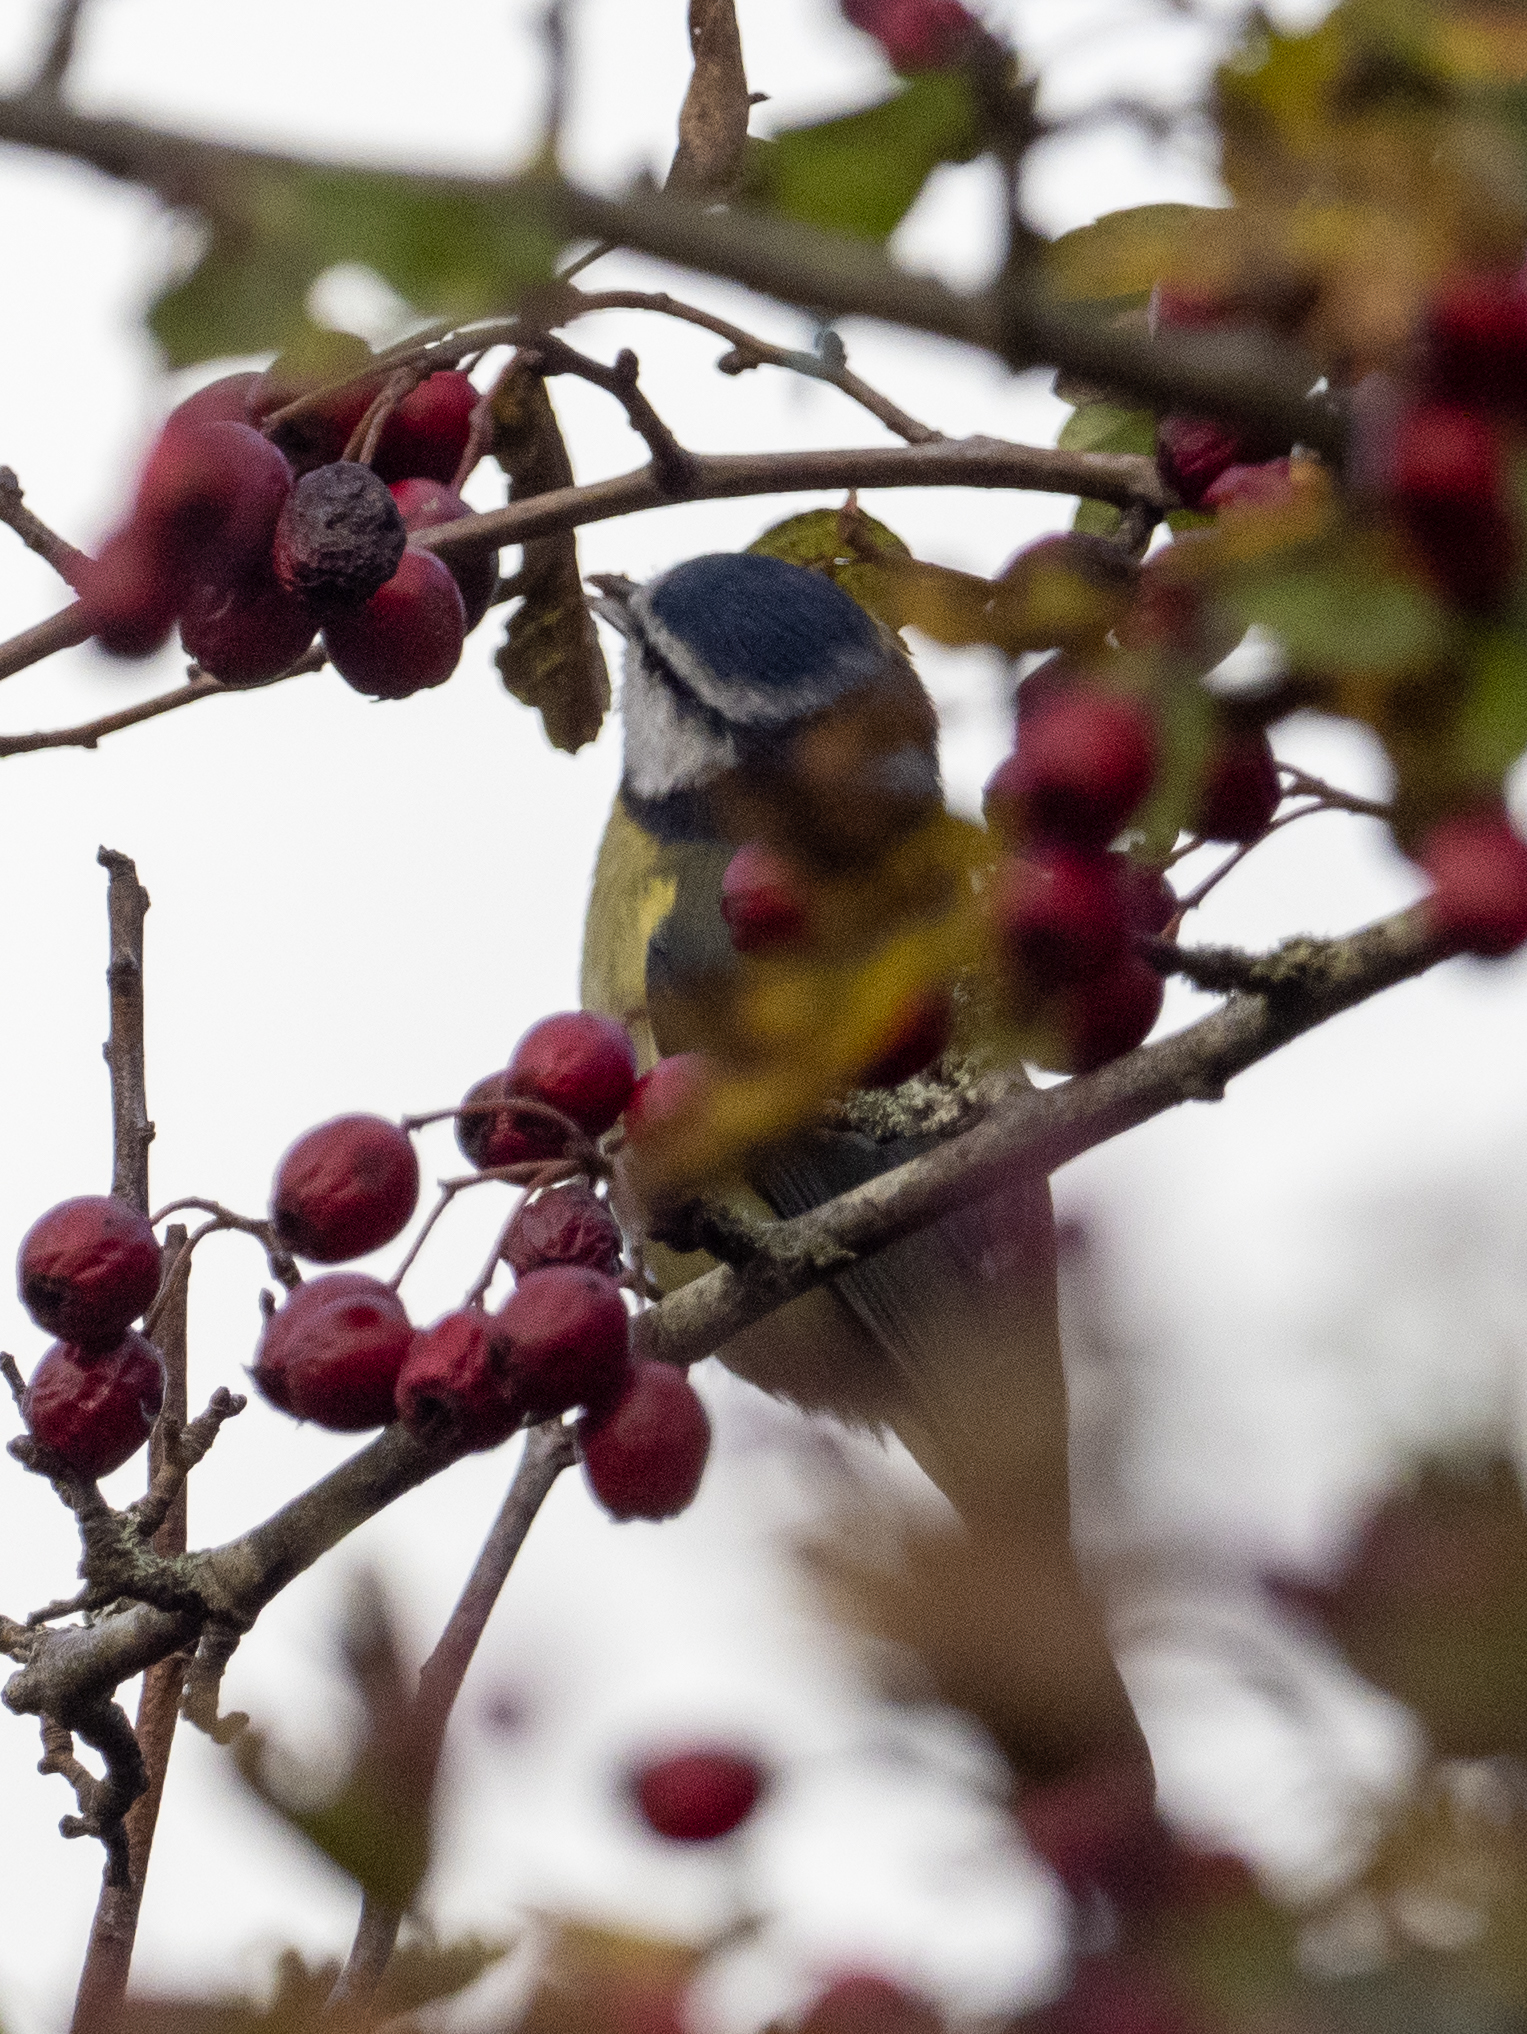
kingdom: Animalia
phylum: Chordata
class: Aves
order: Passeriformes
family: Paridae
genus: Cyanistes
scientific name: Cyanistes caeruleus
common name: Eurasian blue tit
